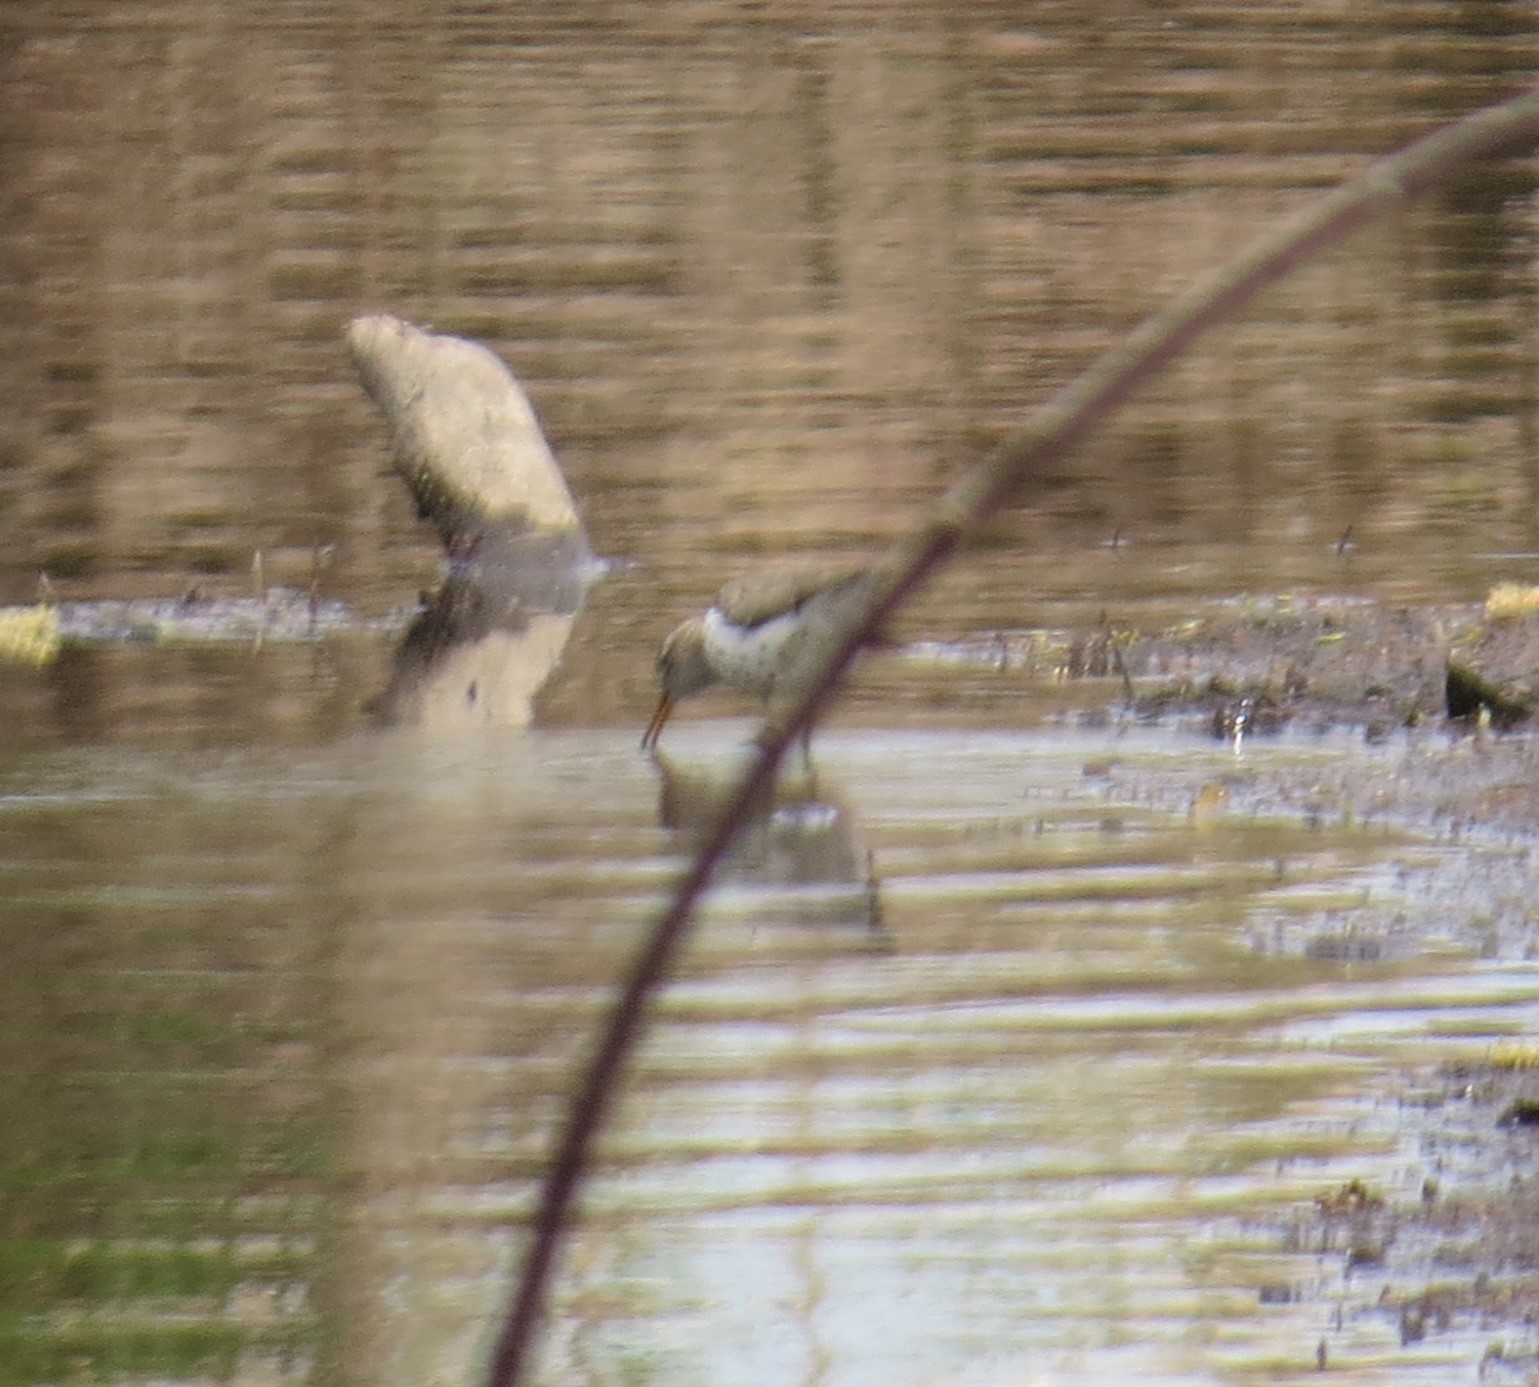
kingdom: Animalia
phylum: Chordata
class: Aves
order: Charadriiformes
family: Scolopacidae
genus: Actitis
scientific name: Actitis macularius
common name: Spotted sandpiper
